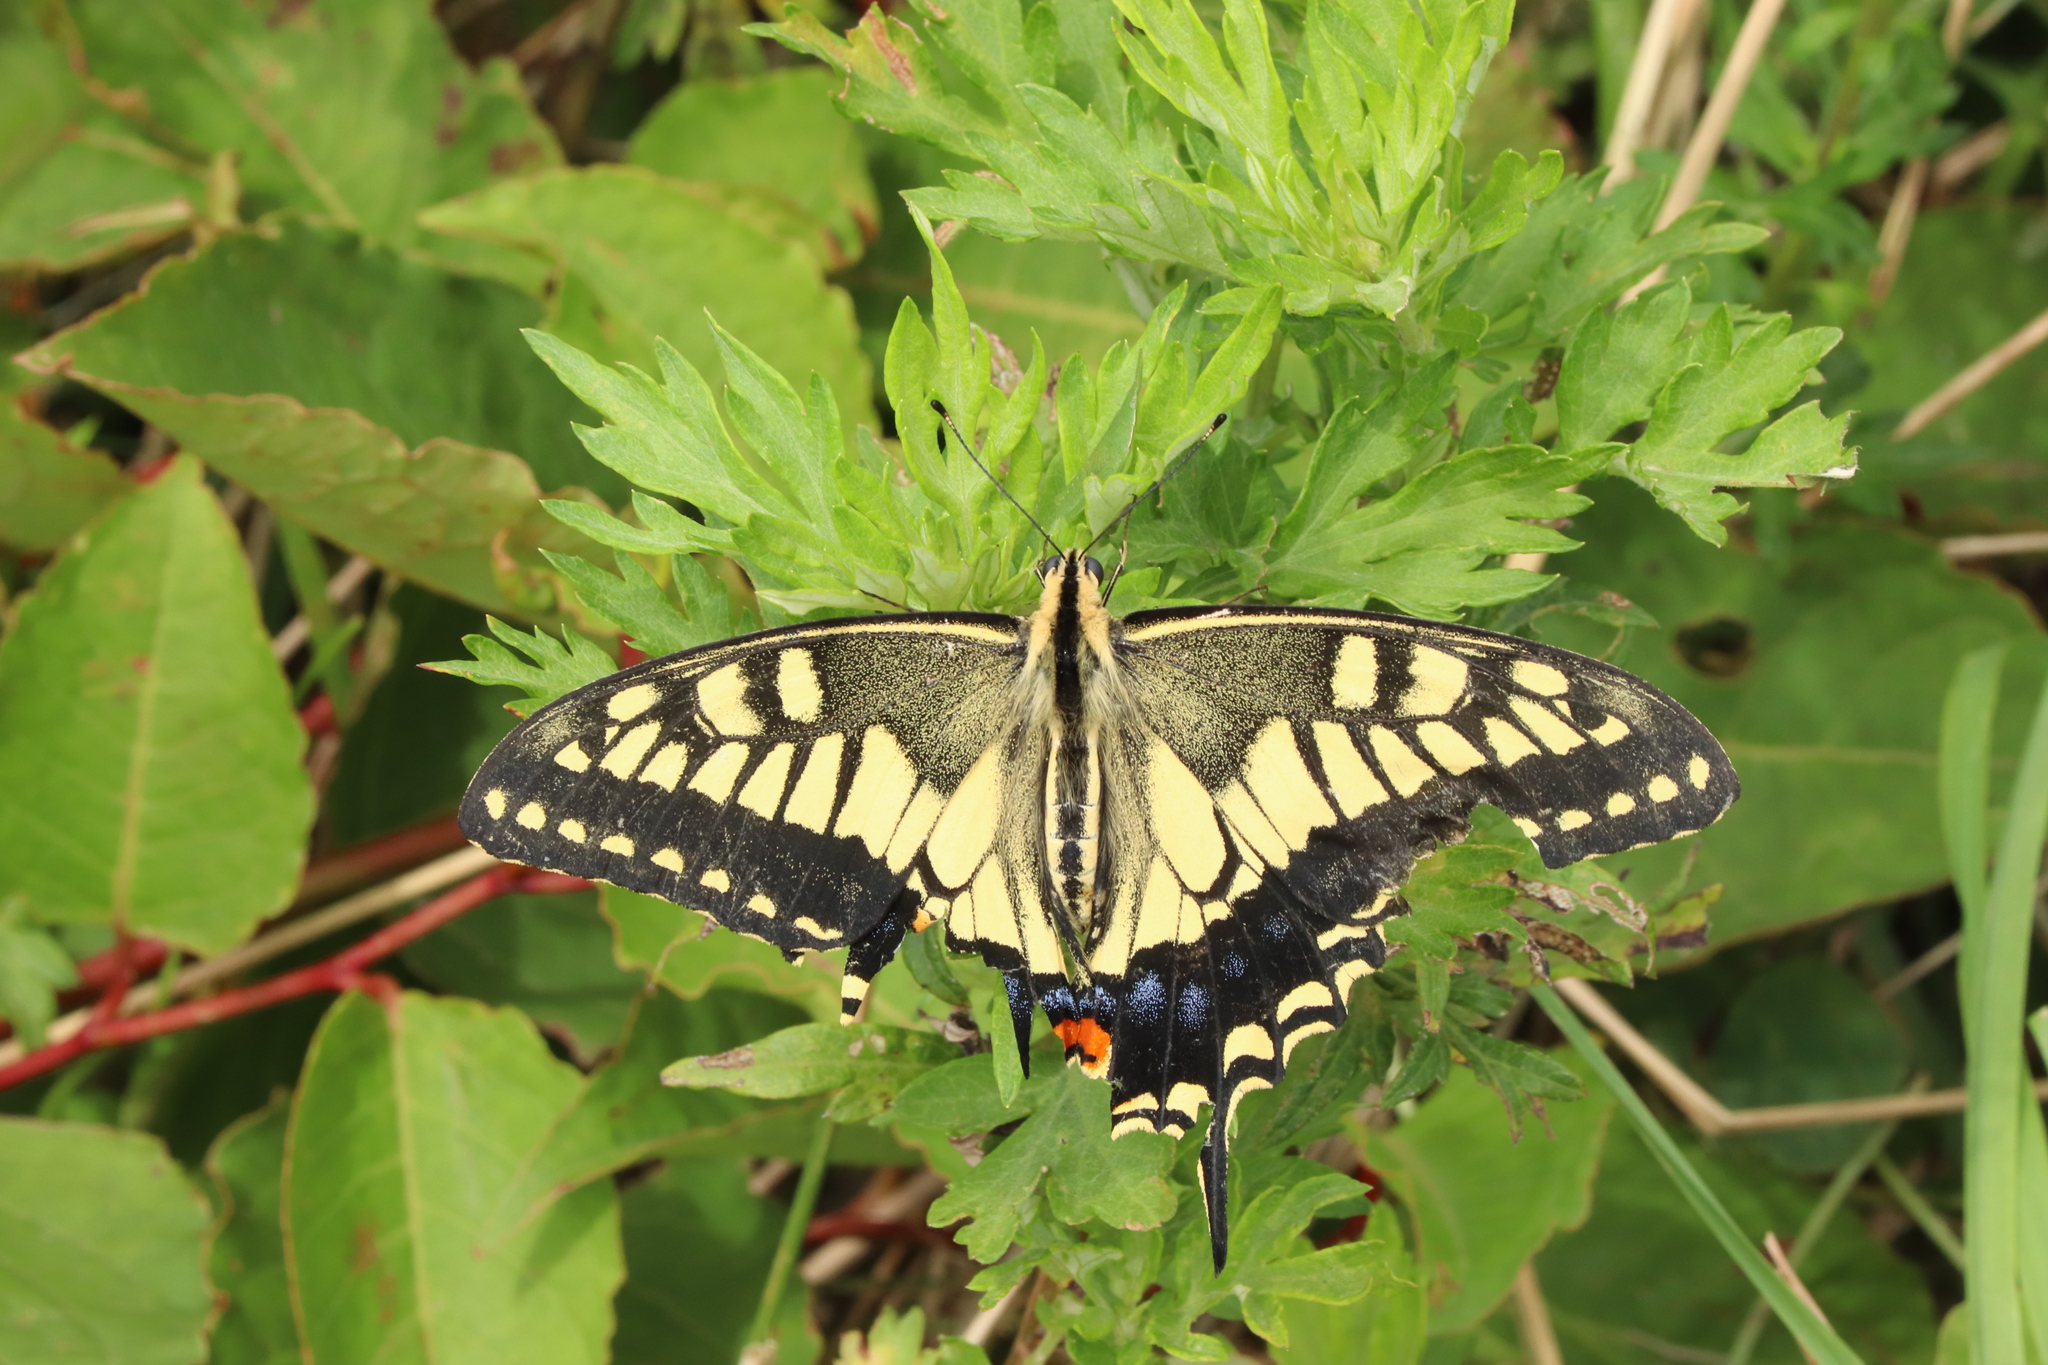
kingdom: Animalia
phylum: Arthropoda
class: Insecta
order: Lepidoptera
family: Papilionidae
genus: Papilio
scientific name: Papilio machaon
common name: Swallowtail
